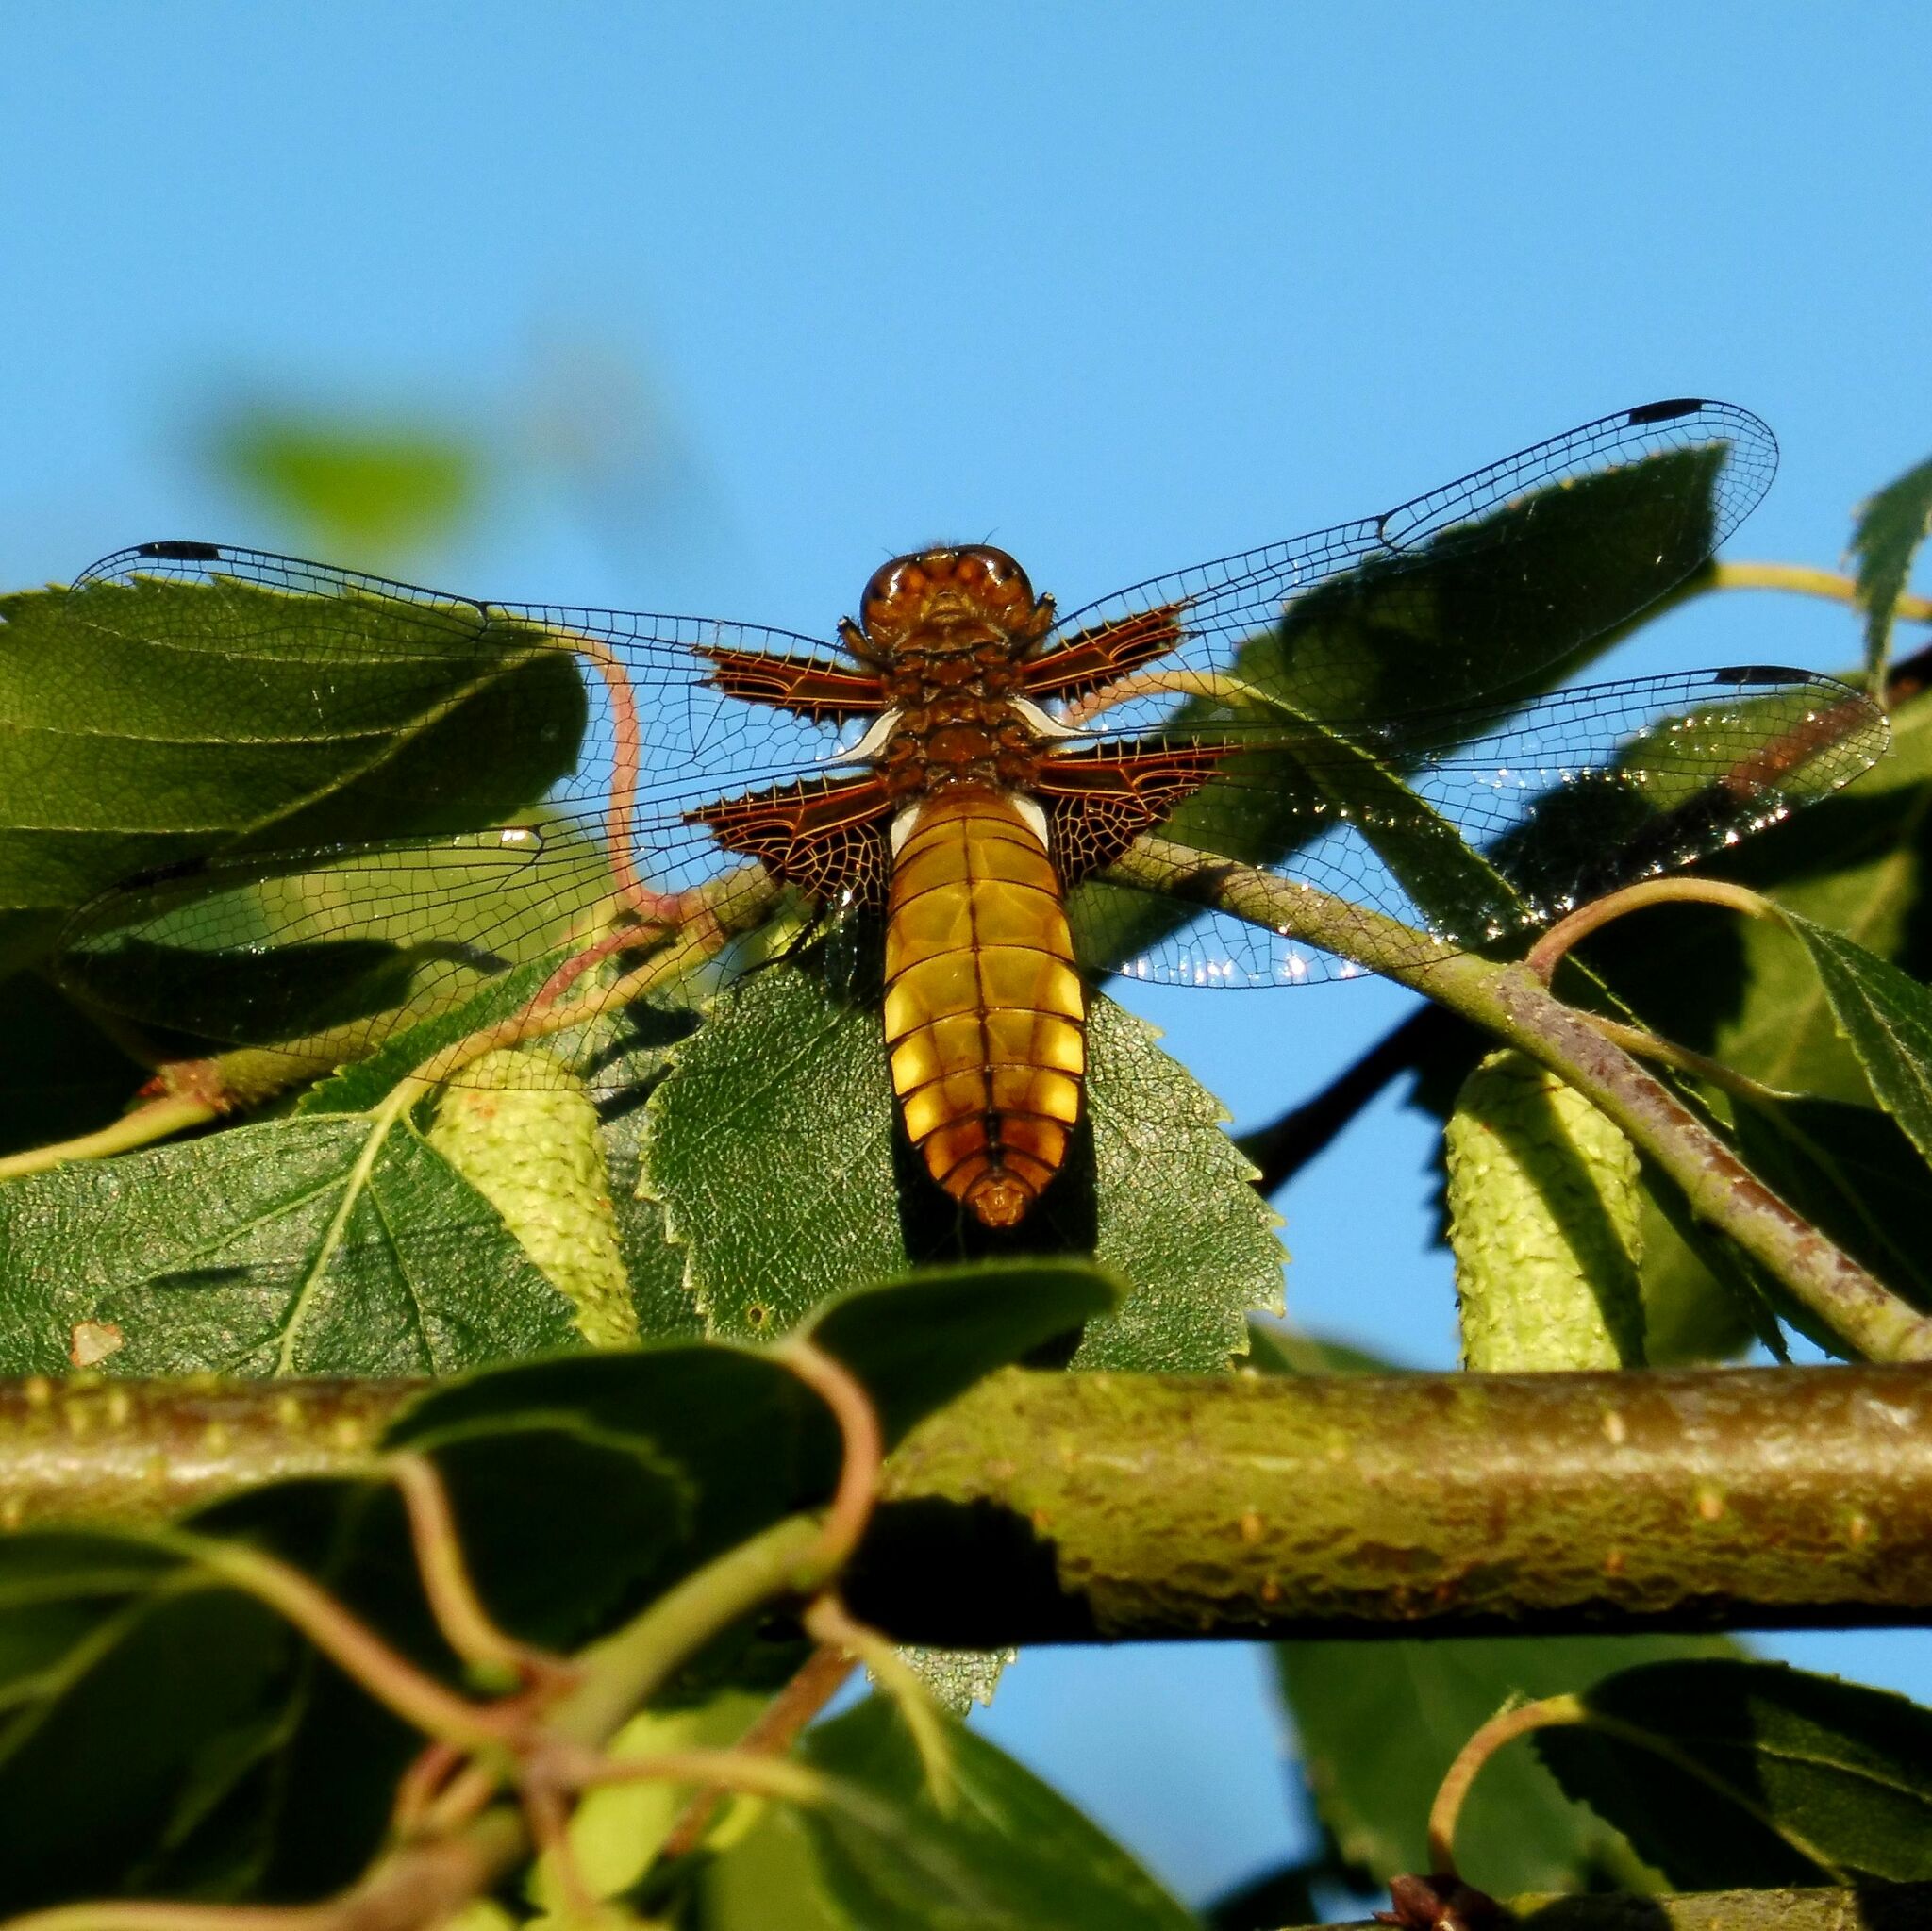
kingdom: Animalia
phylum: Arthropoda
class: Insecta
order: Odonata
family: Libellulidae
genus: Libellula
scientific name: Libellula depressa
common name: Broad-bodied chaser
